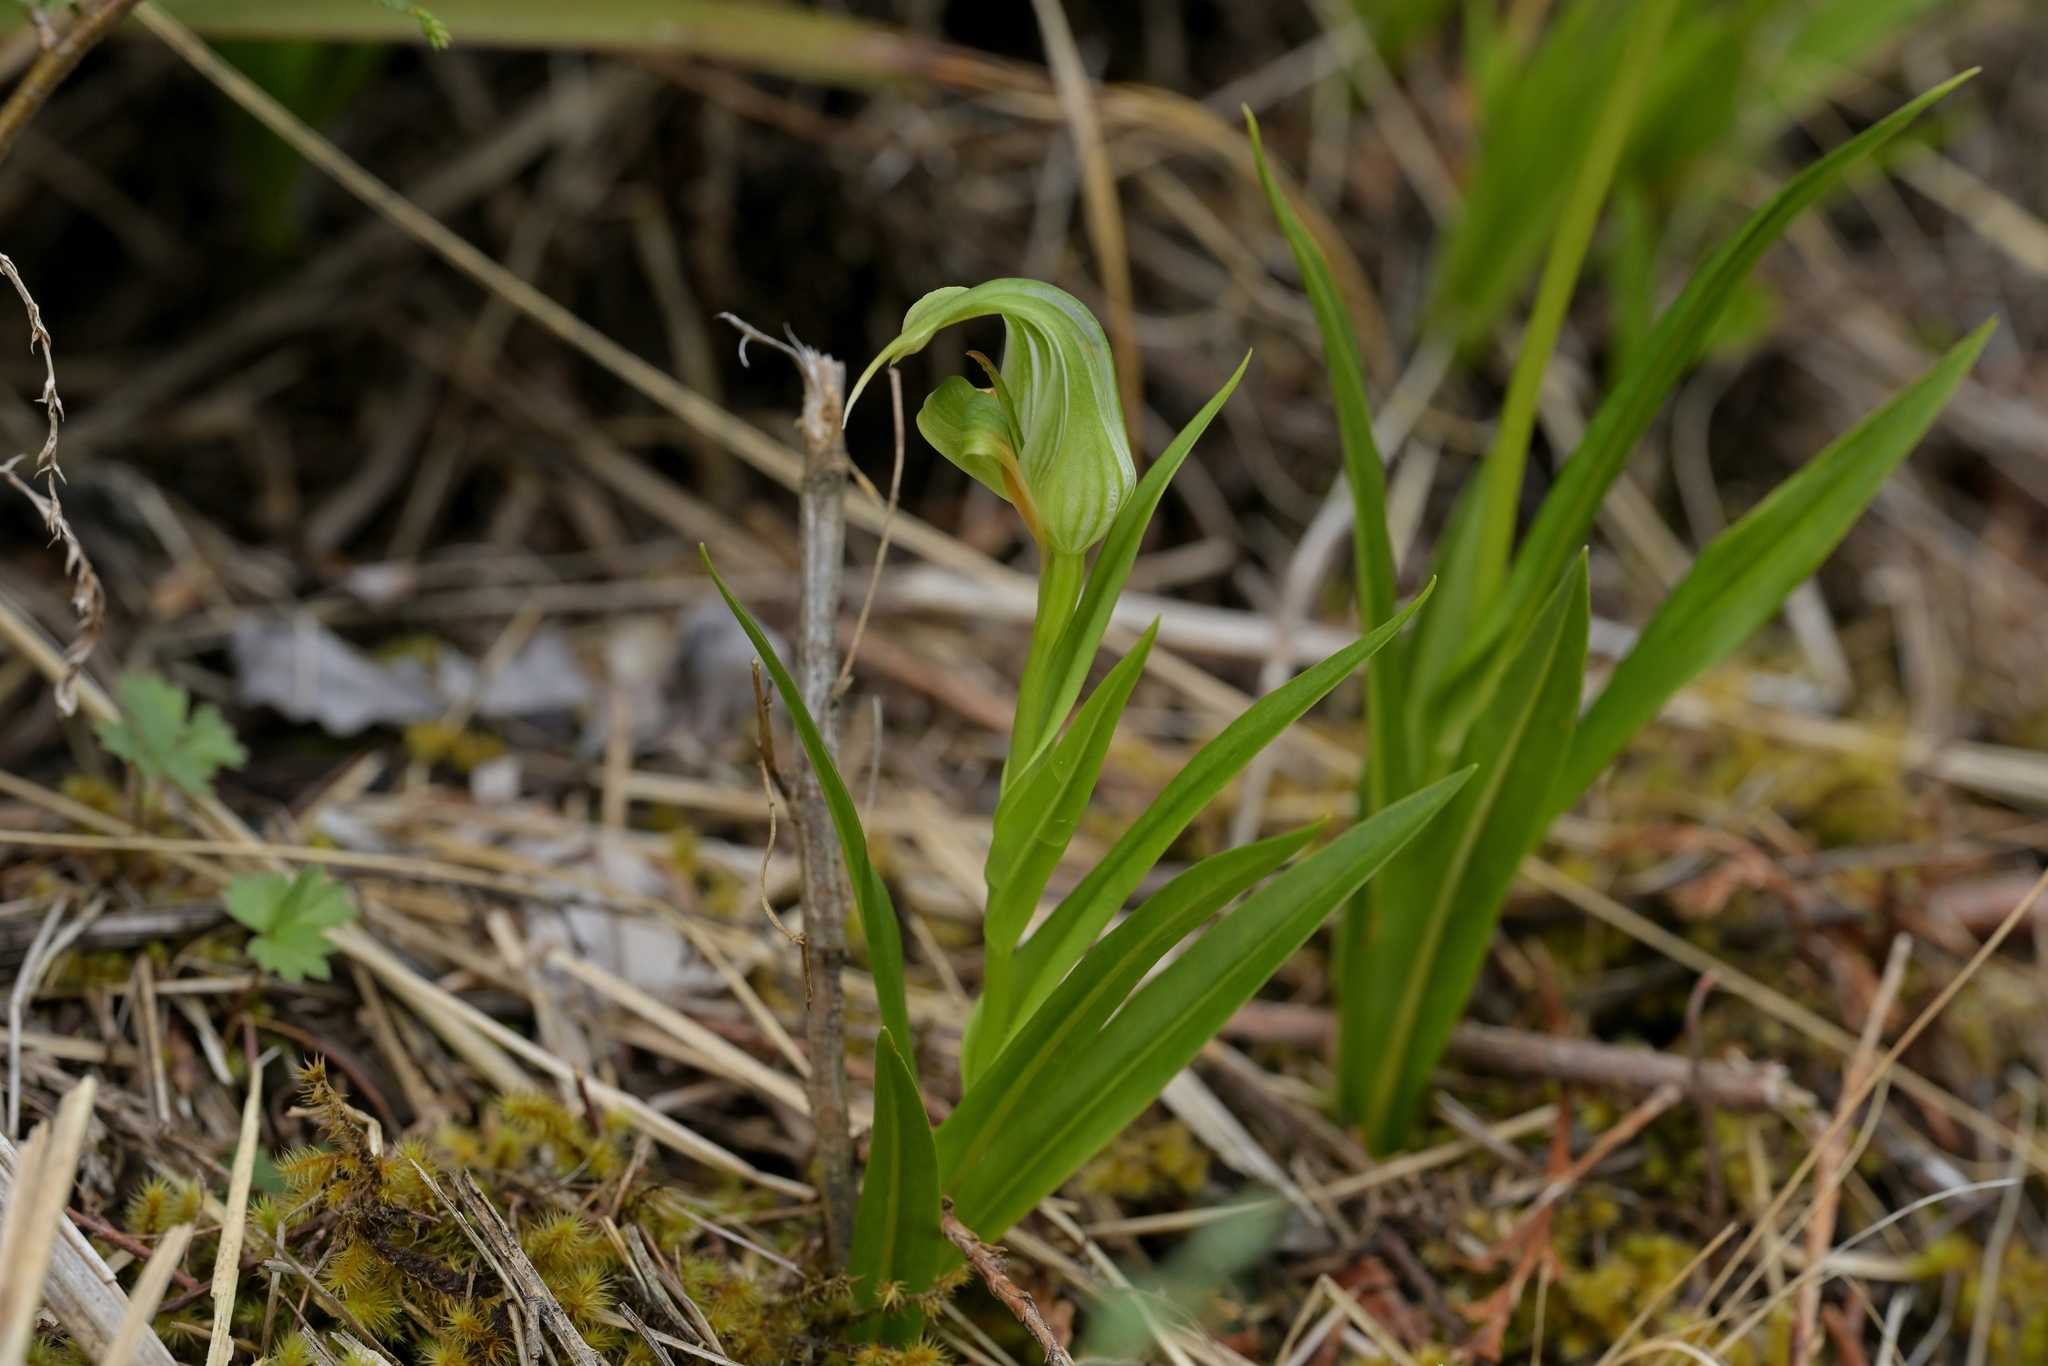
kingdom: Plantae
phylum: Tracheophyta
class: Liliopsida
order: Asparagales
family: Orchidaceae
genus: Pterostylis
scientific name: Pterostylis patens
